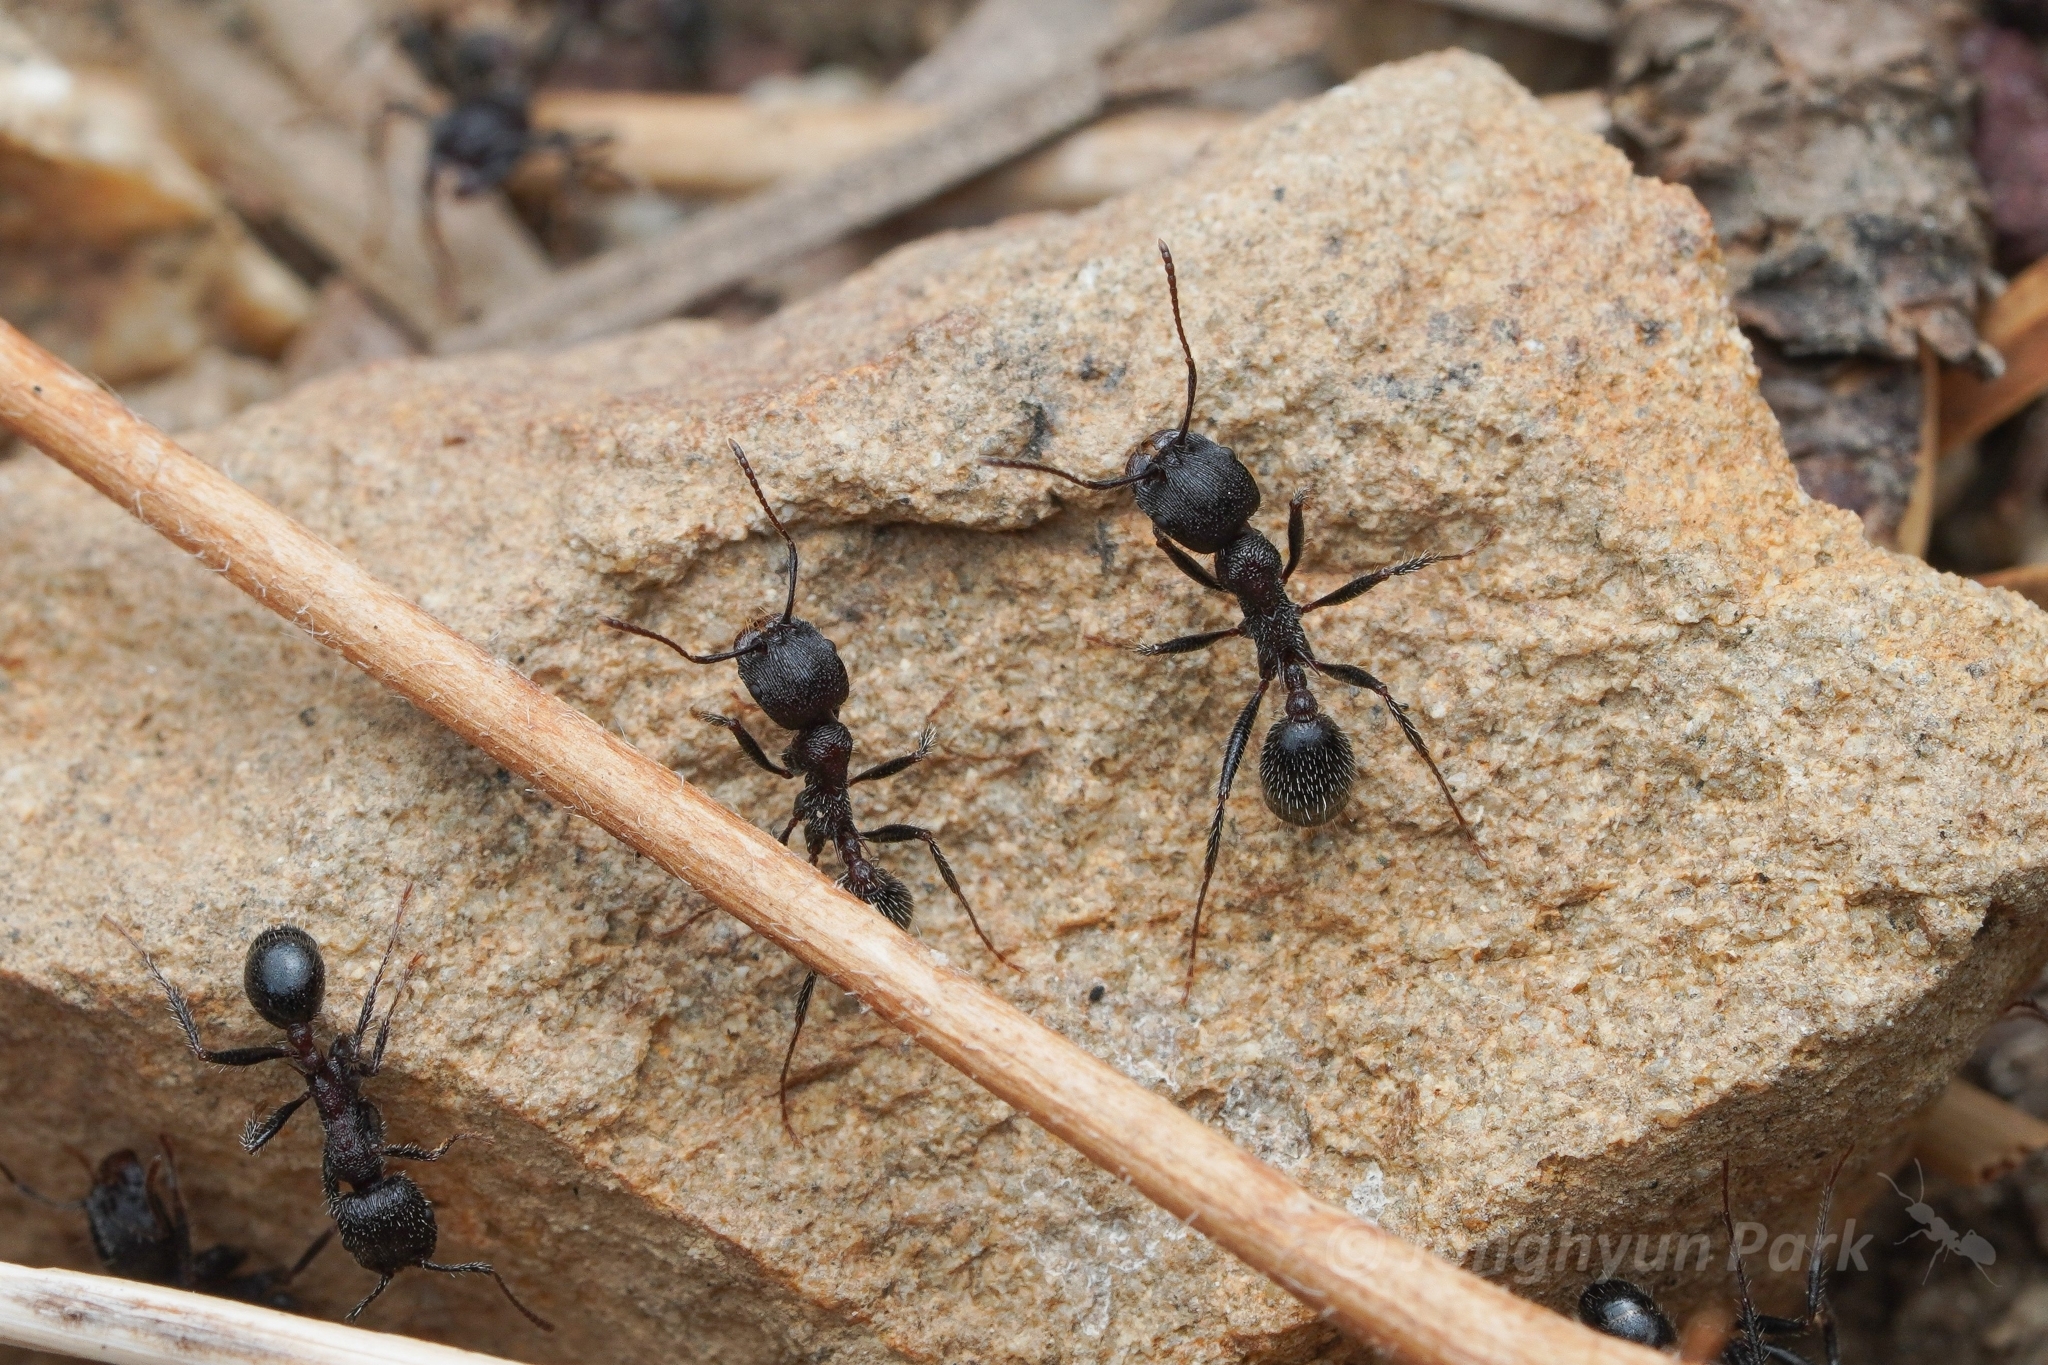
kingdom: Animalia
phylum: Arthropoda
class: Insecta
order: Hymenoptera
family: Formicidae
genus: Veromessor
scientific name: Veromessor andrei
